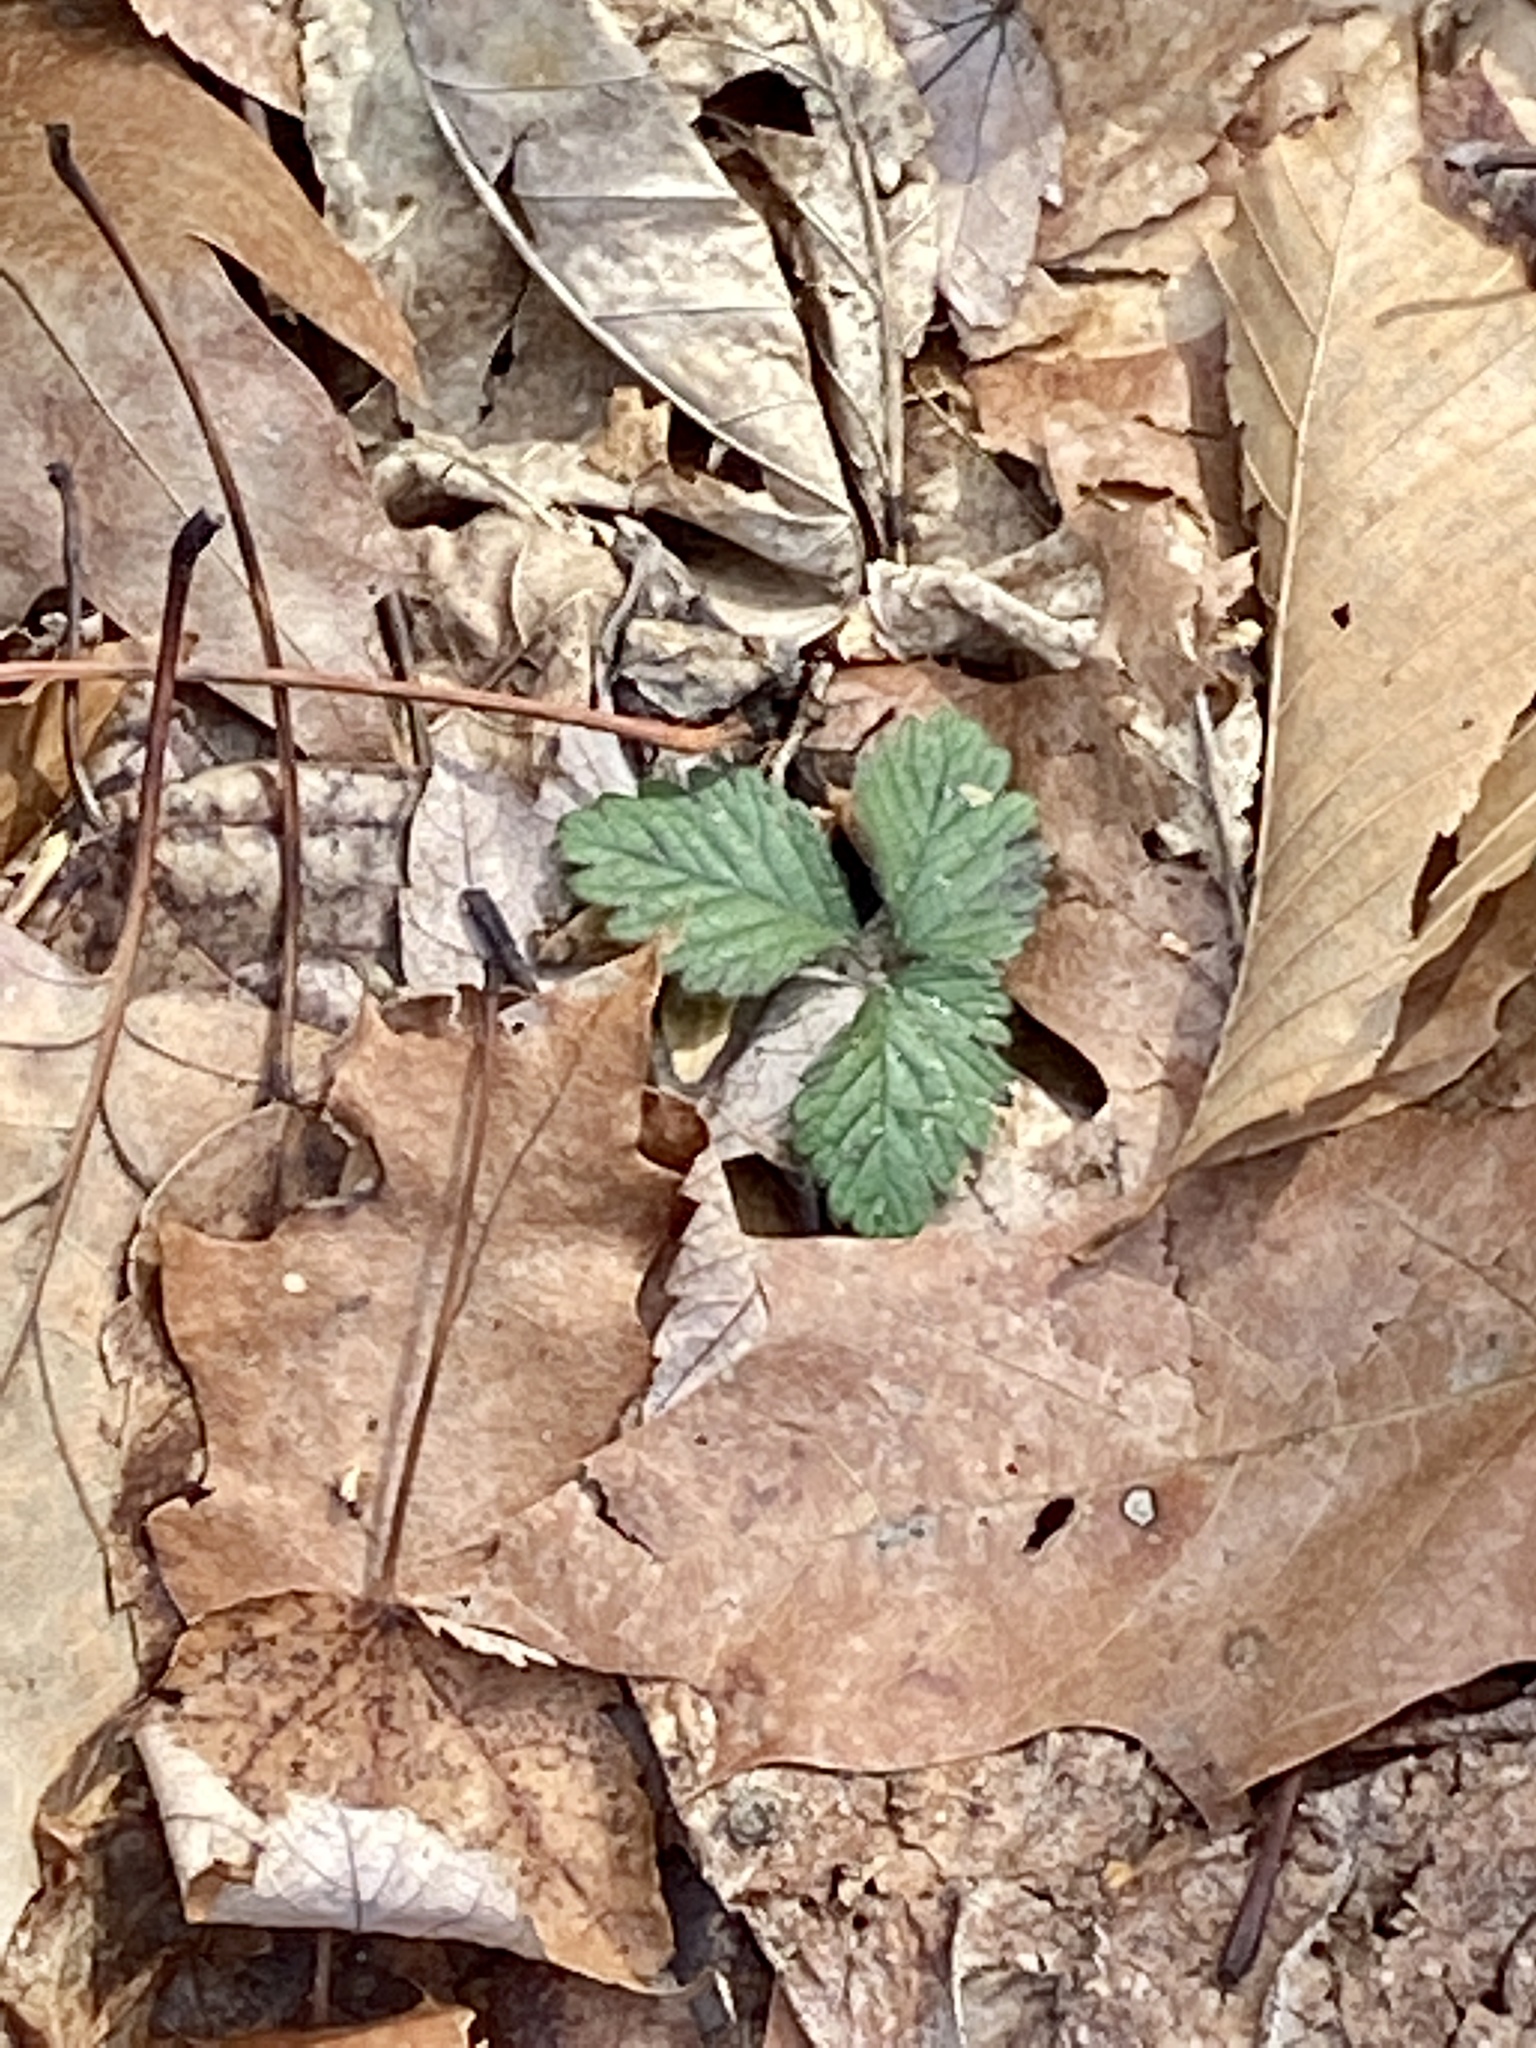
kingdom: Plantae
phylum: Tracheophyta
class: Magnoliopsida
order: Rosales
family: Rosaceae
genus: Potentilla
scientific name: Potentilla indica
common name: Yellow-flowered strawberry
